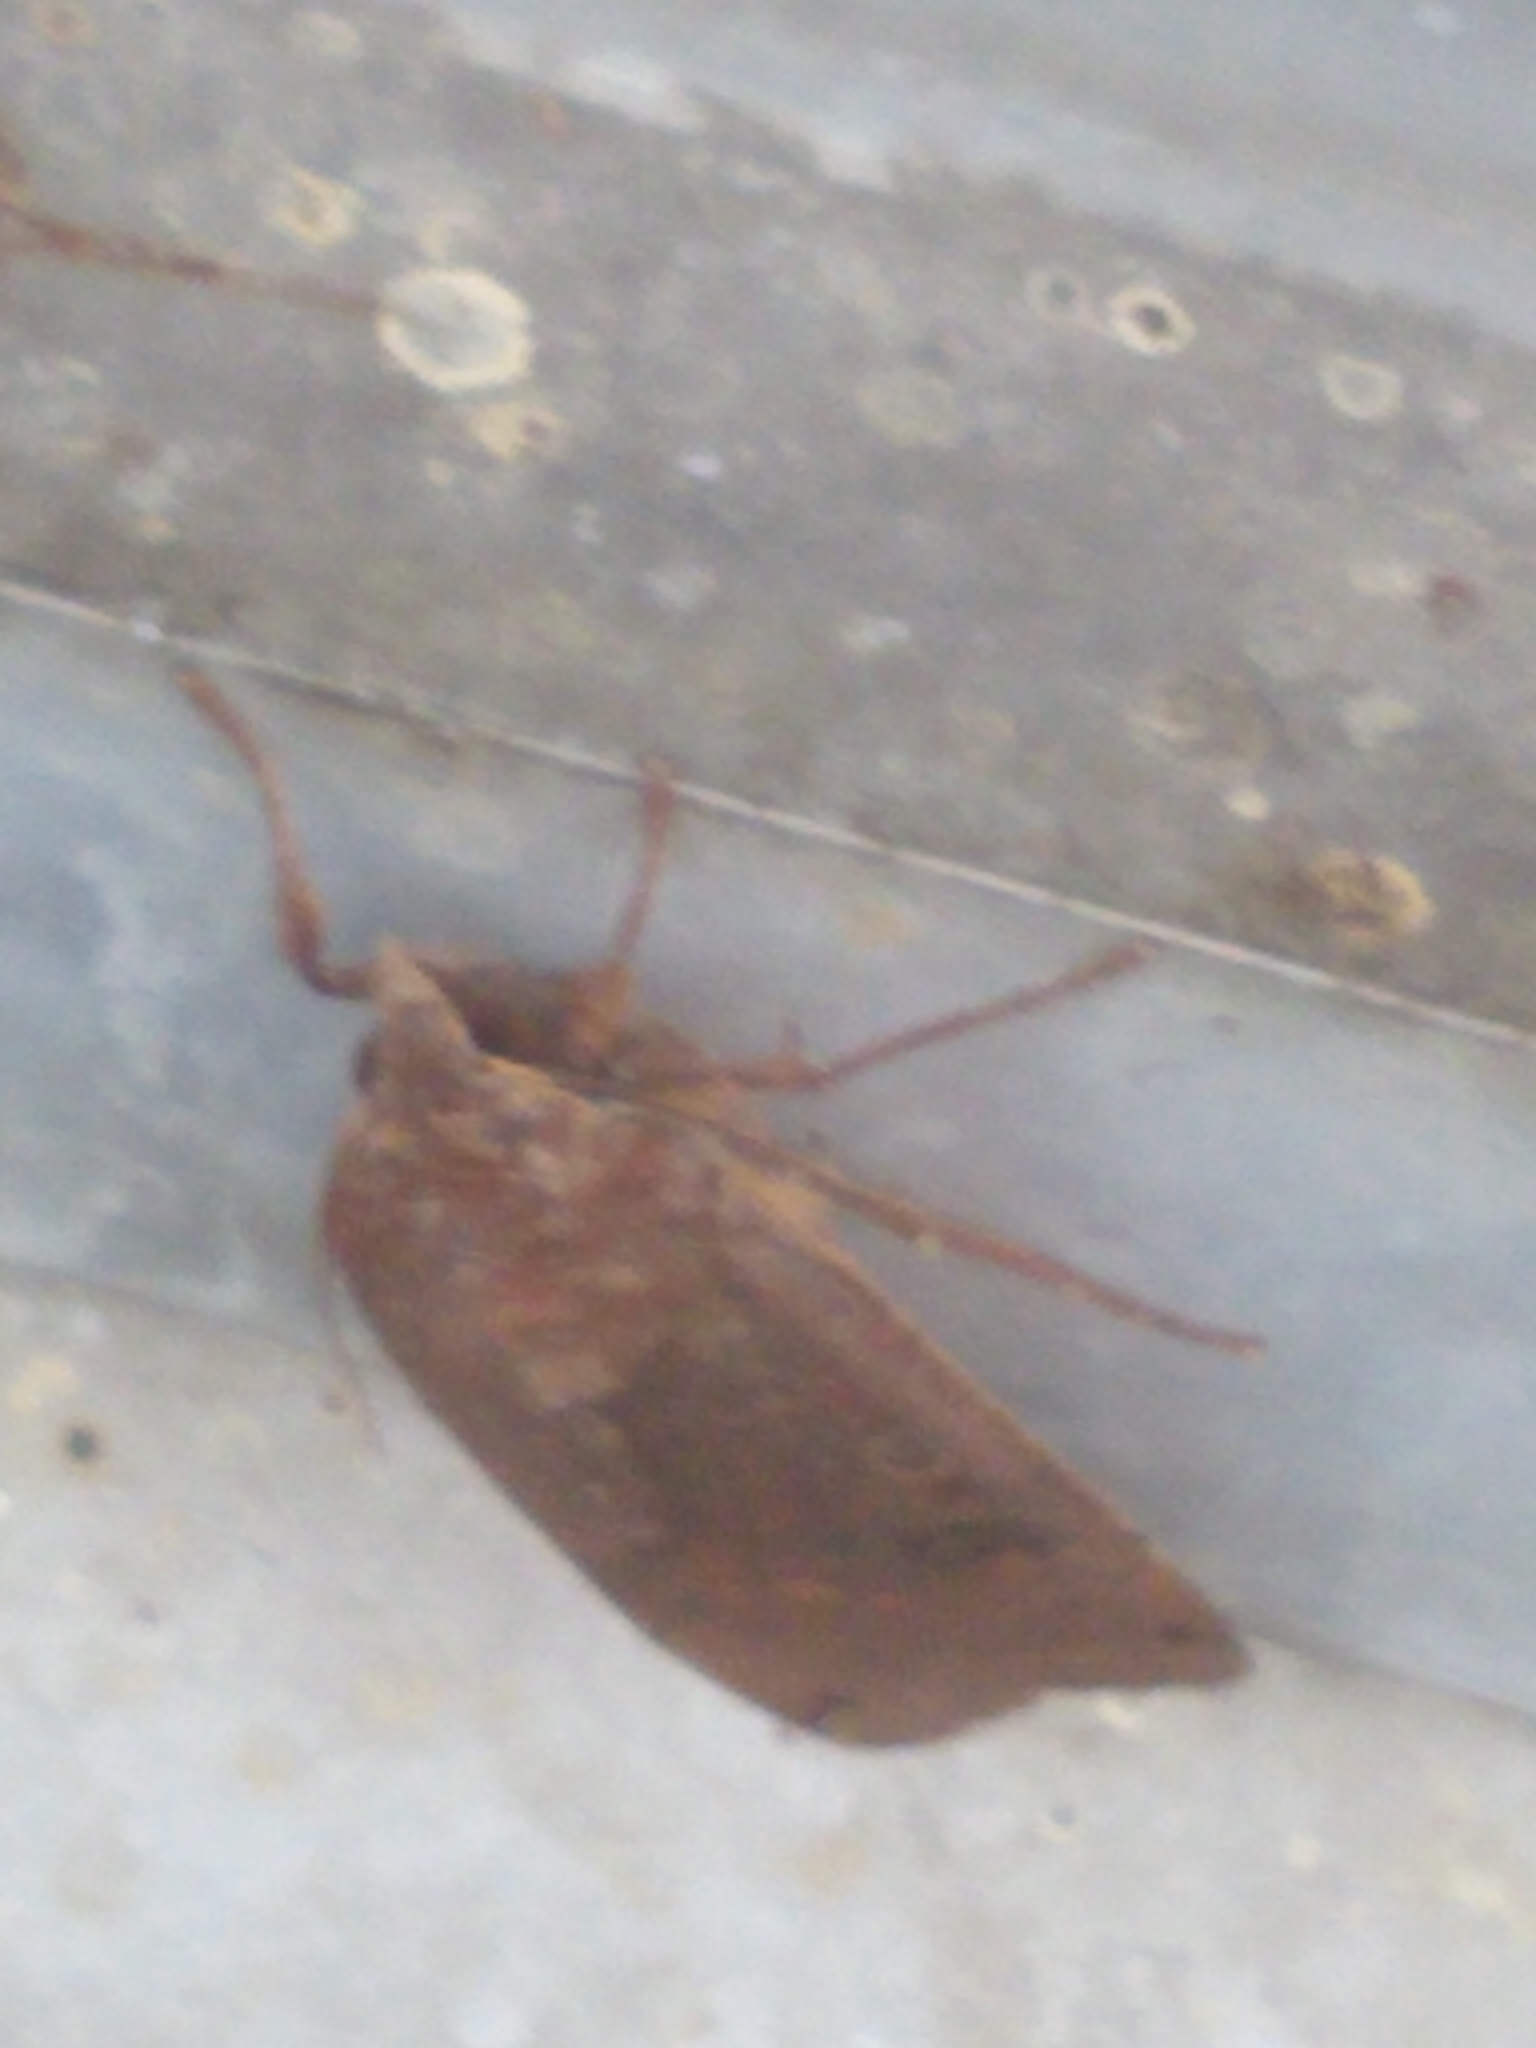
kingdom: Animalia
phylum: Arthropoda
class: Insecta
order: Lepidoptera
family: Noctuidae
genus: Noctua
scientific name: Noctua pronuba
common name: Large yellow underwing
